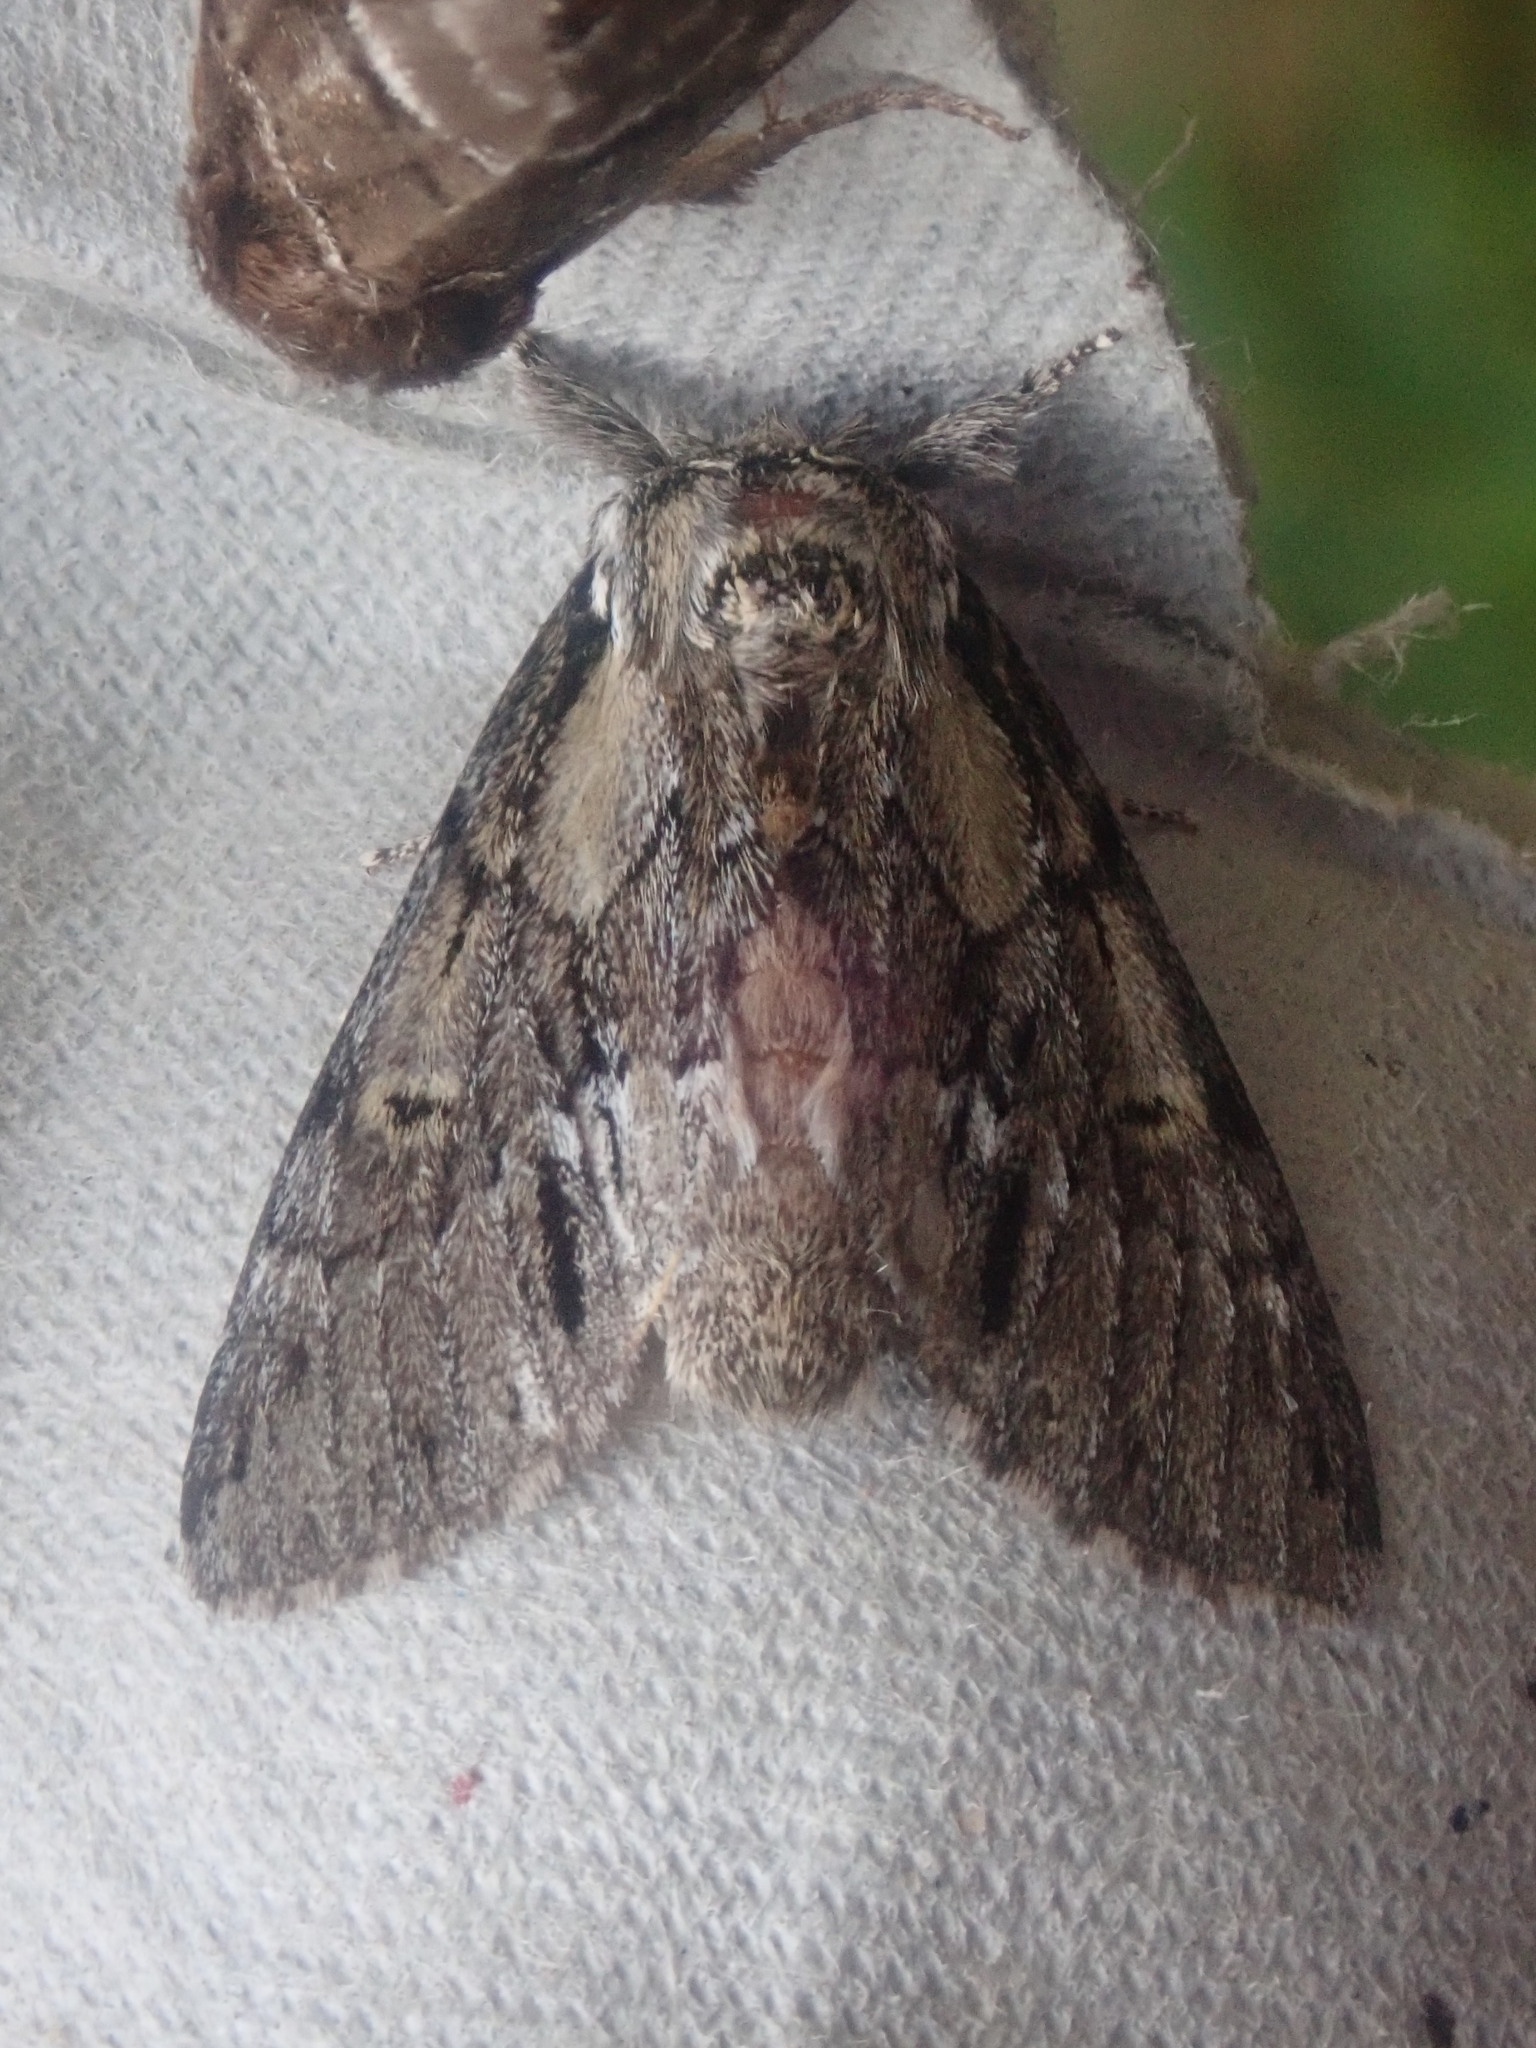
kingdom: Animalia
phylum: Arthropoda
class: Insecta
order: Lepidoptera
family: Notodontidae
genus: Paraeschra
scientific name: Paraeschra georgica
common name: Georgian prominent
